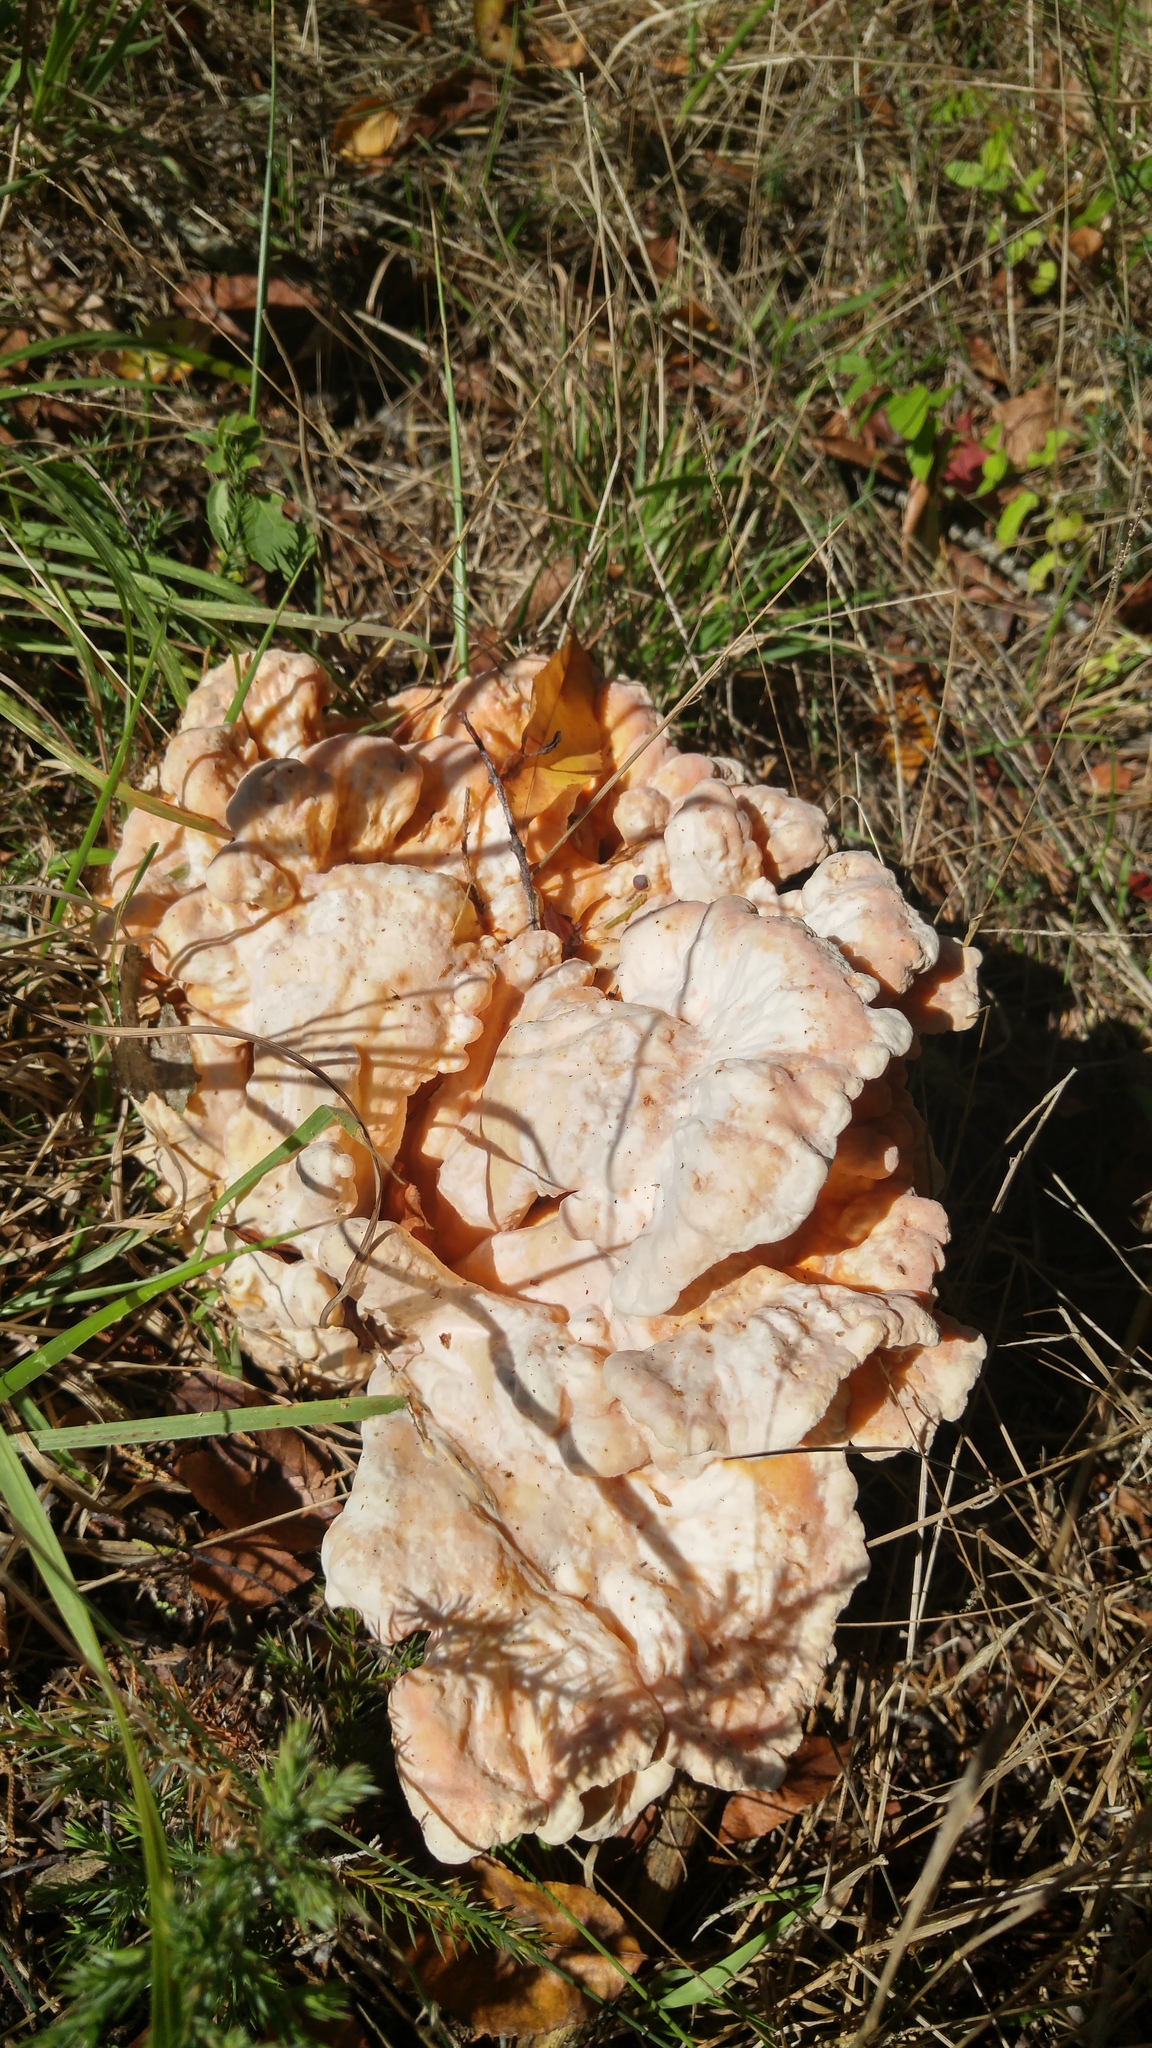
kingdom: Fungi
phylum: Basidiomycota
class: Agaricomycetes
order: Polyporales
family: Laetiporaceae
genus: Laetiporus
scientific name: Laetiporus sulphureus
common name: Chicken of the woods
